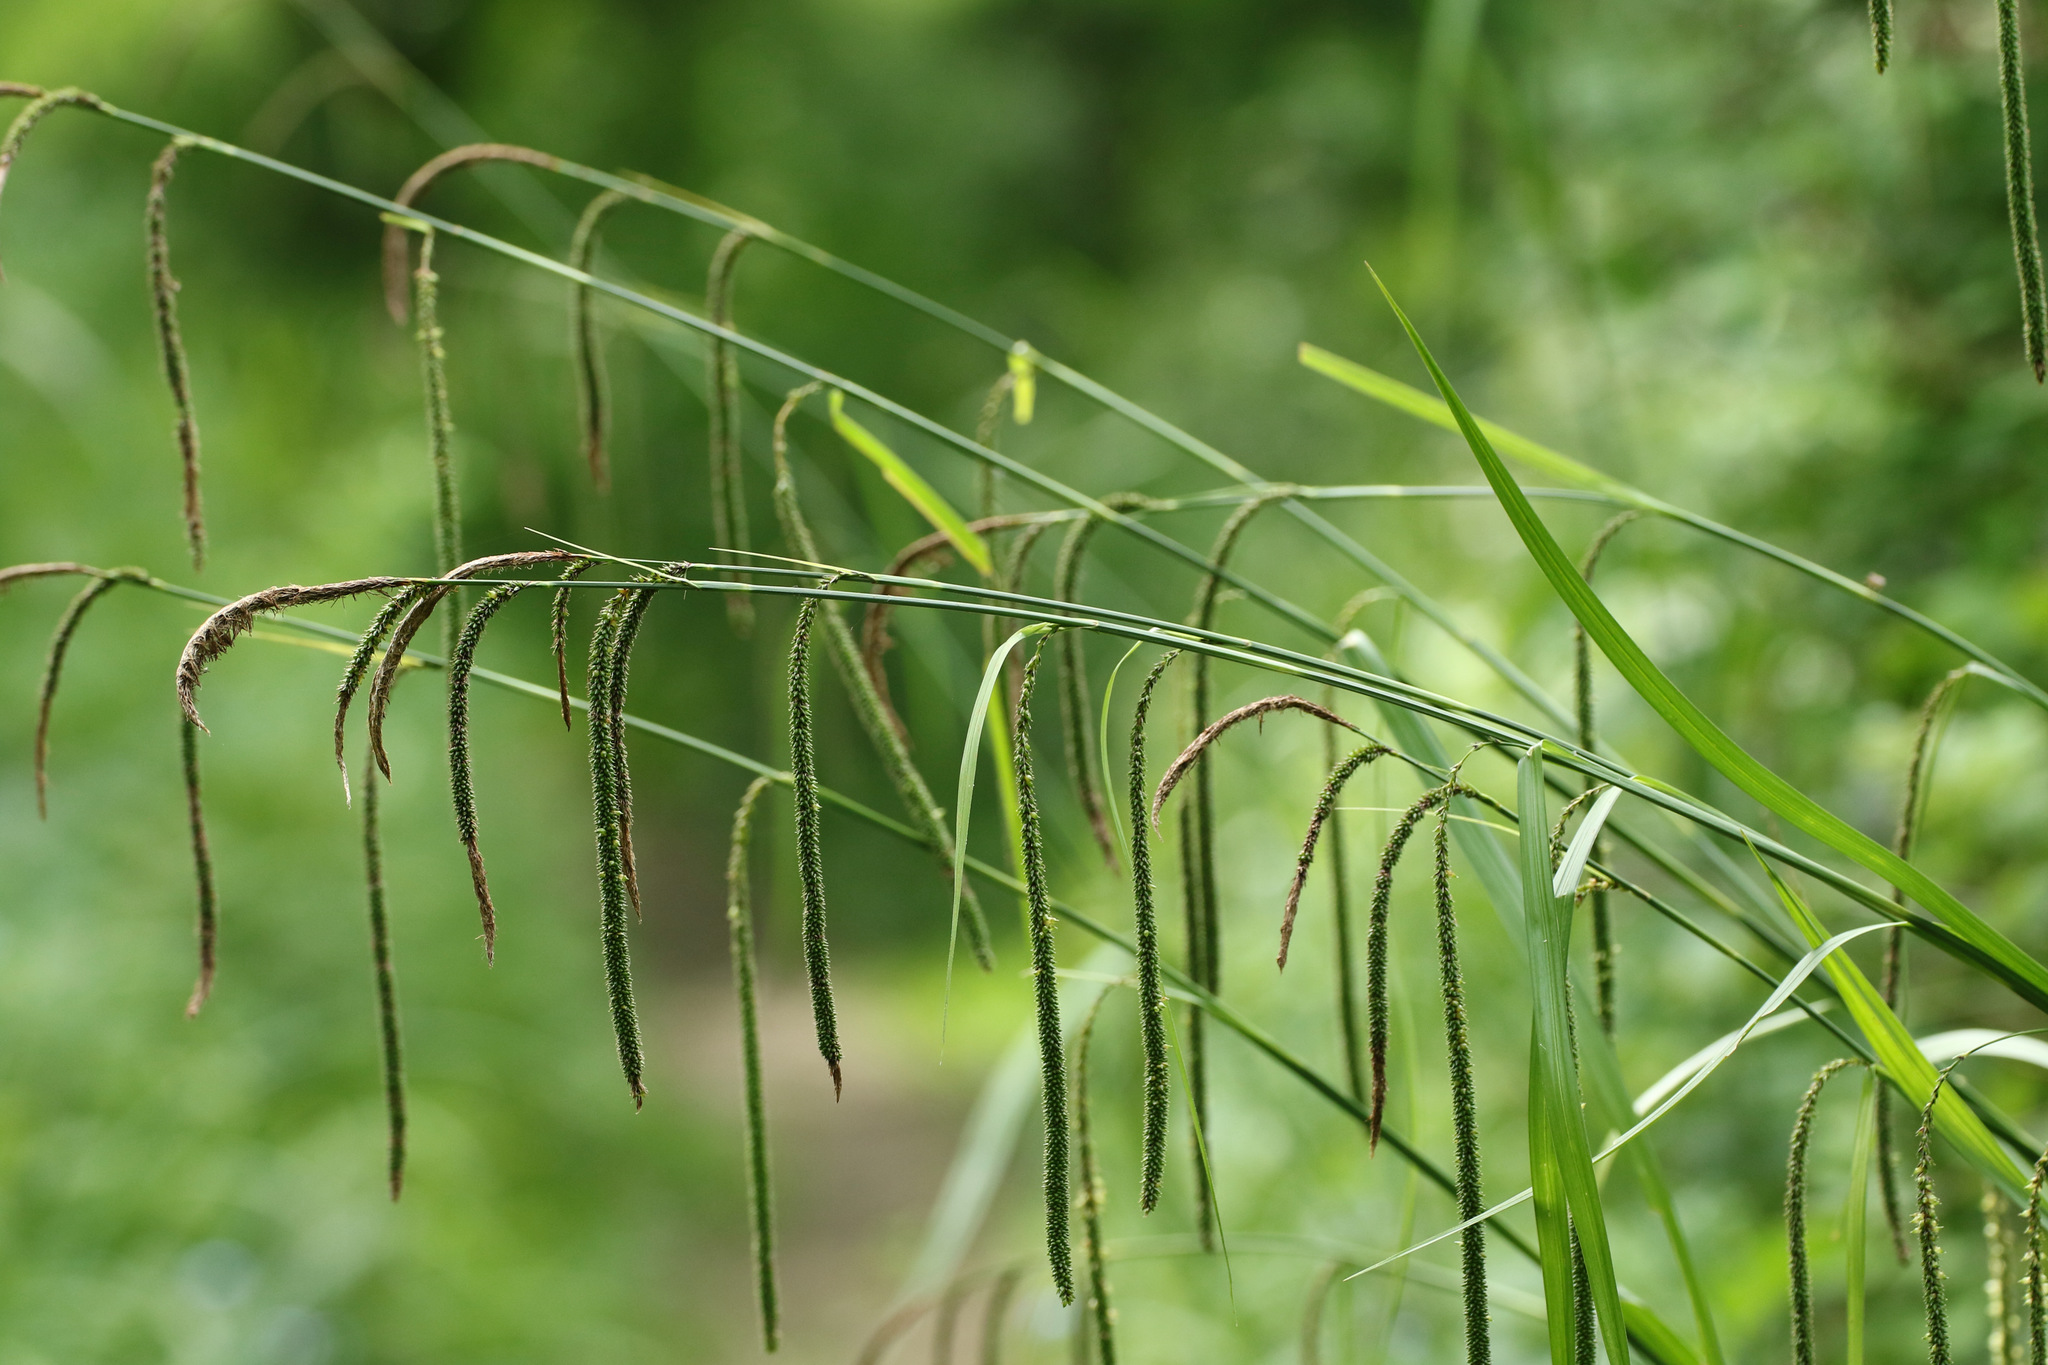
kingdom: Plantae
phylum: Tracheophyta
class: Liliopsida
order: Poales
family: Cyperaceae
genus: Carex
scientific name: Carex pendula
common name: Pendulous sedge
